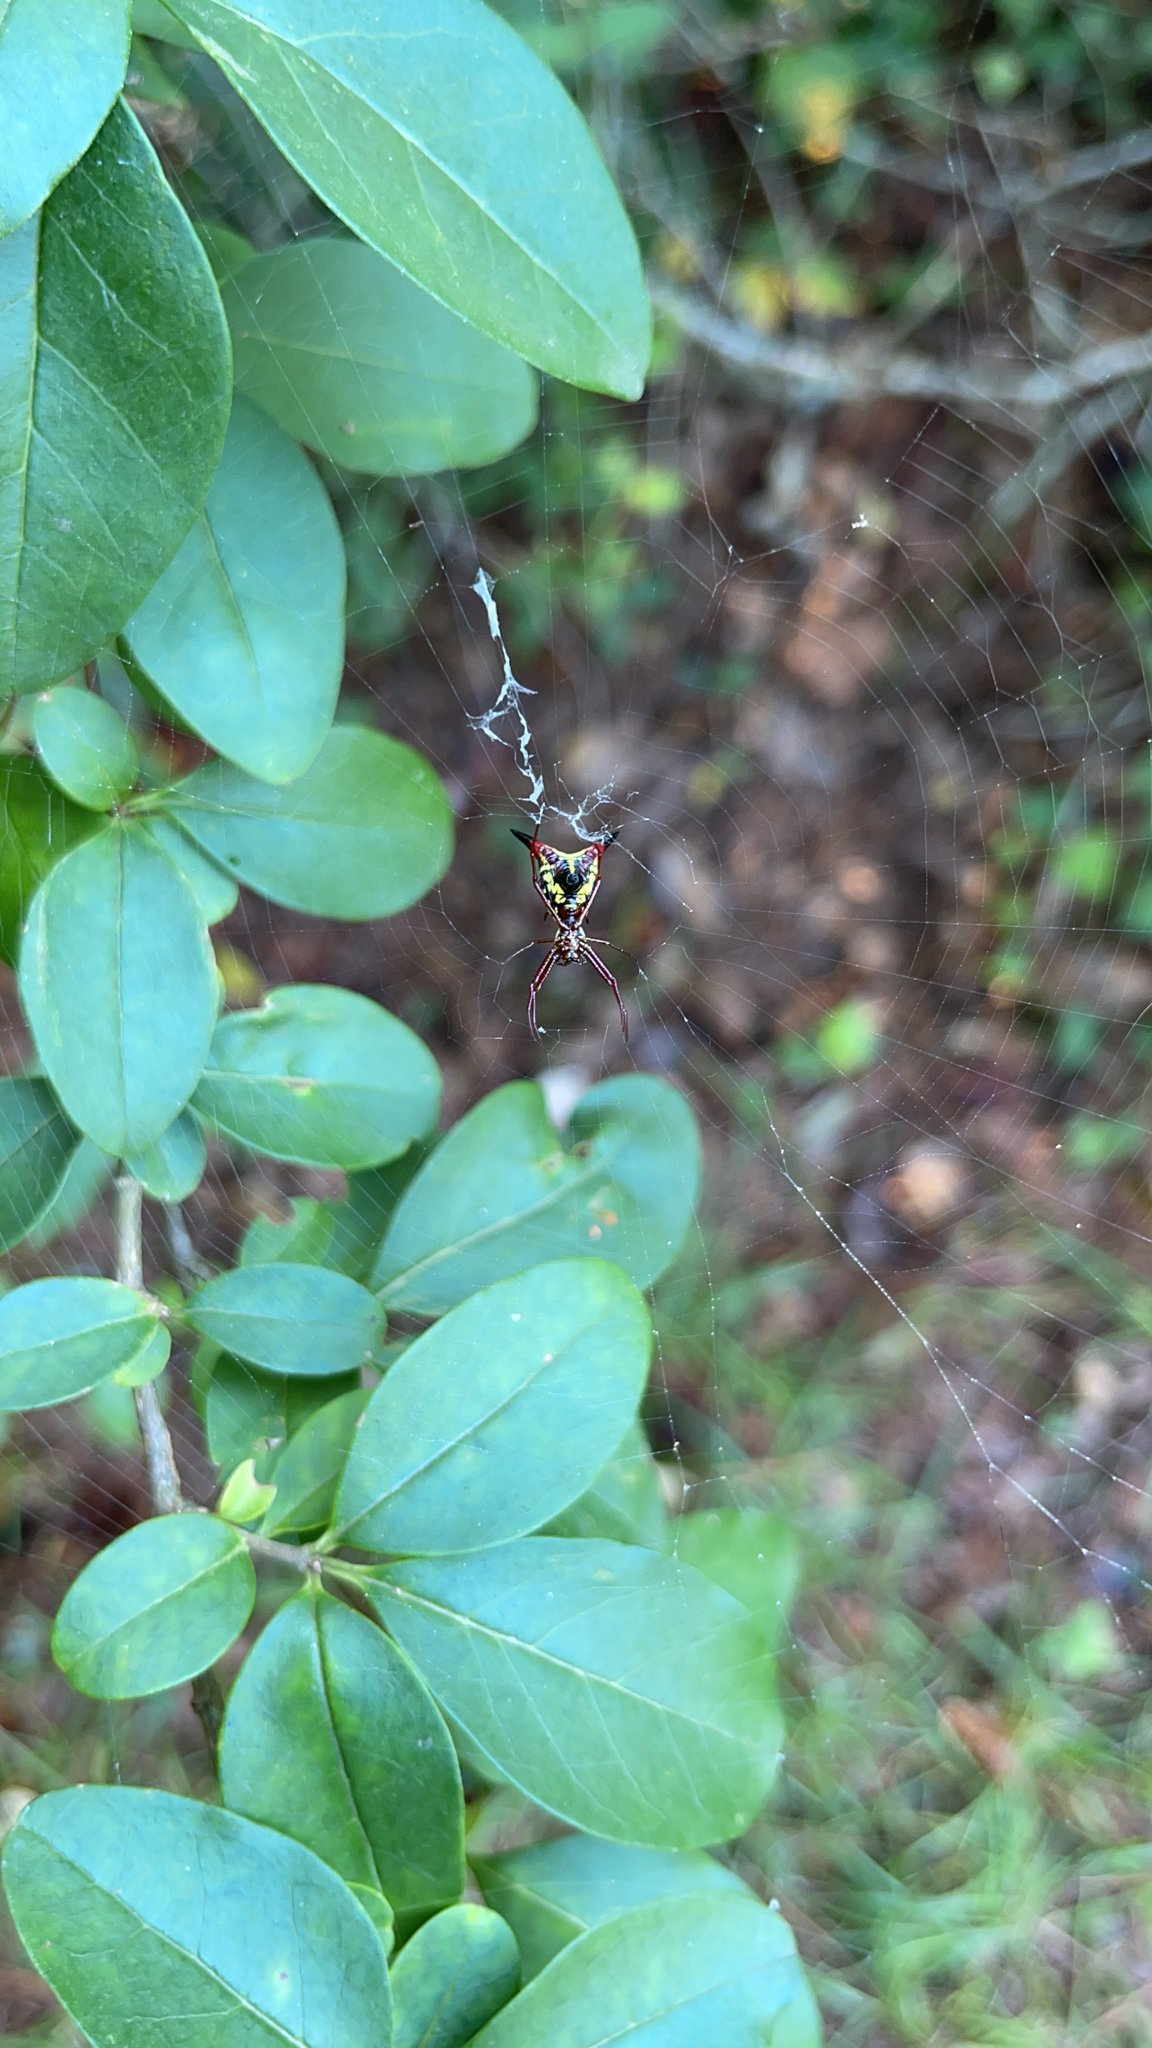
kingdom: Animalia
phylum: Arthropoda
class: Arachnida
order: Araneae
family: Araneidae
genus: Micrathena
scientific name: Micrathena sagittata
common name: Orb weavers
